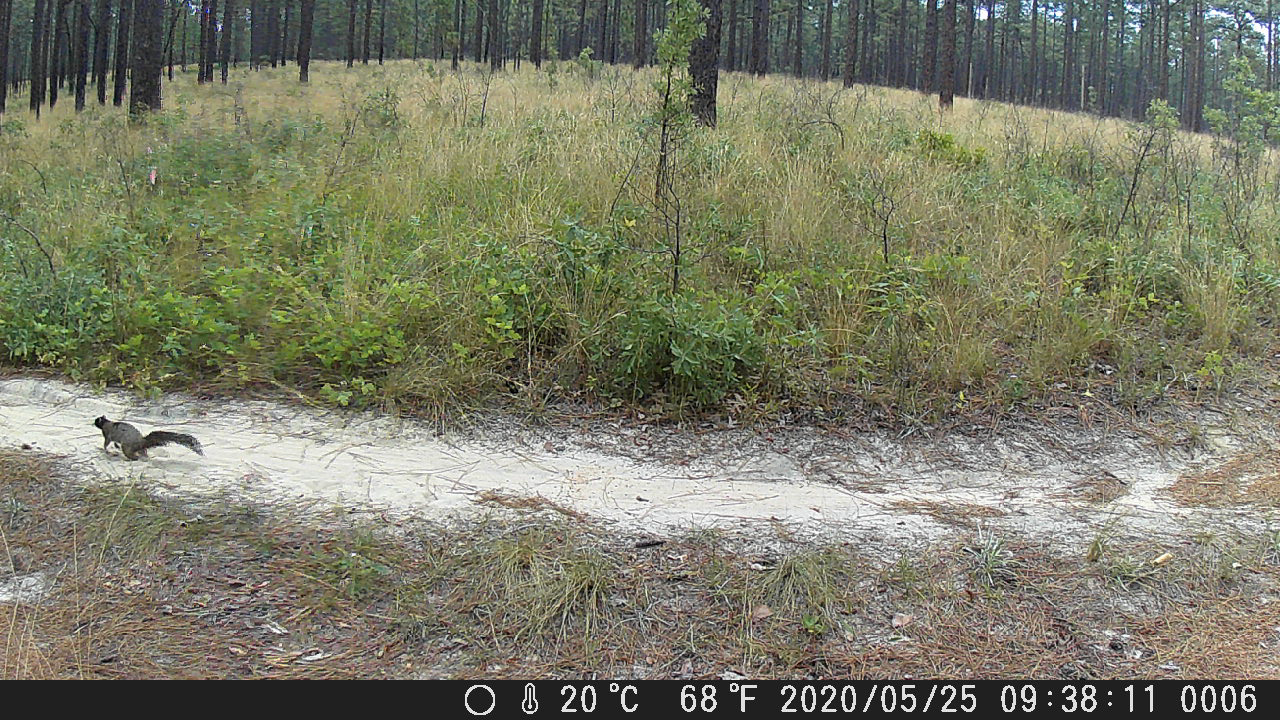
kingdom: Animalia
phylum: Chordata
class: Mammalia
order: Rodentia
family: Sciuridae
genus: Sciurus
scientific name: Sciurus niger
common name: Fox squirrel
